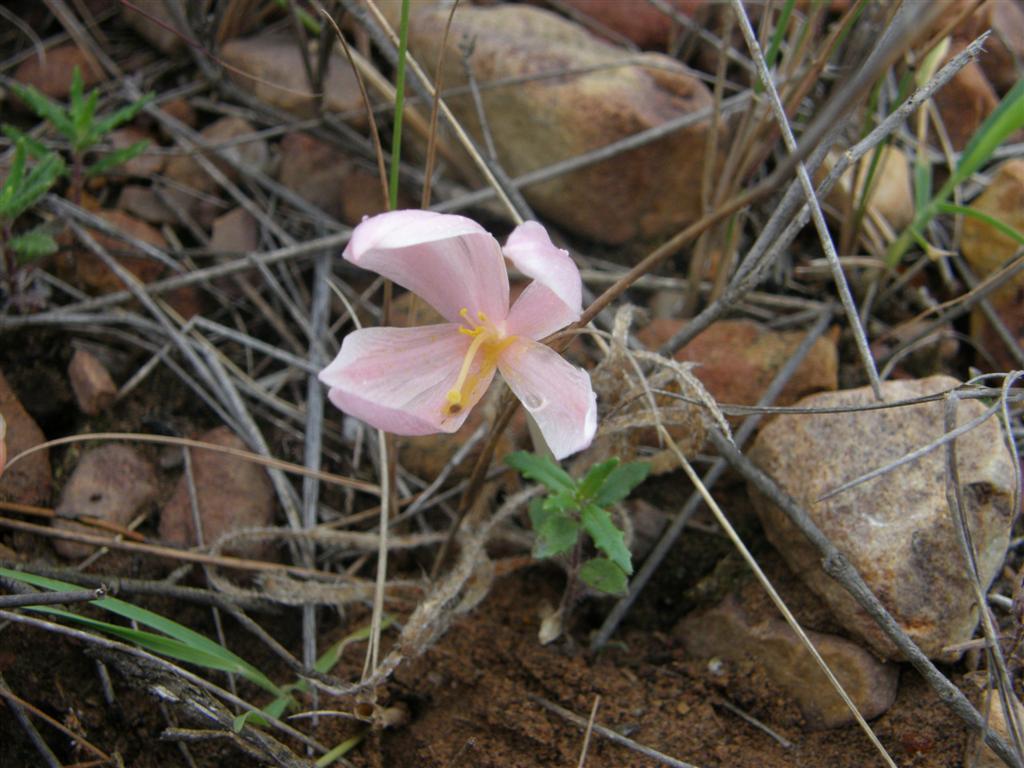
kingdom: Plantae
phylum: Tracheophyta
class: Liliopsida
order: Asparagales
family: Amaryllidaceae
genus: Gethyllis
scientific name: Gethyllis villosa
